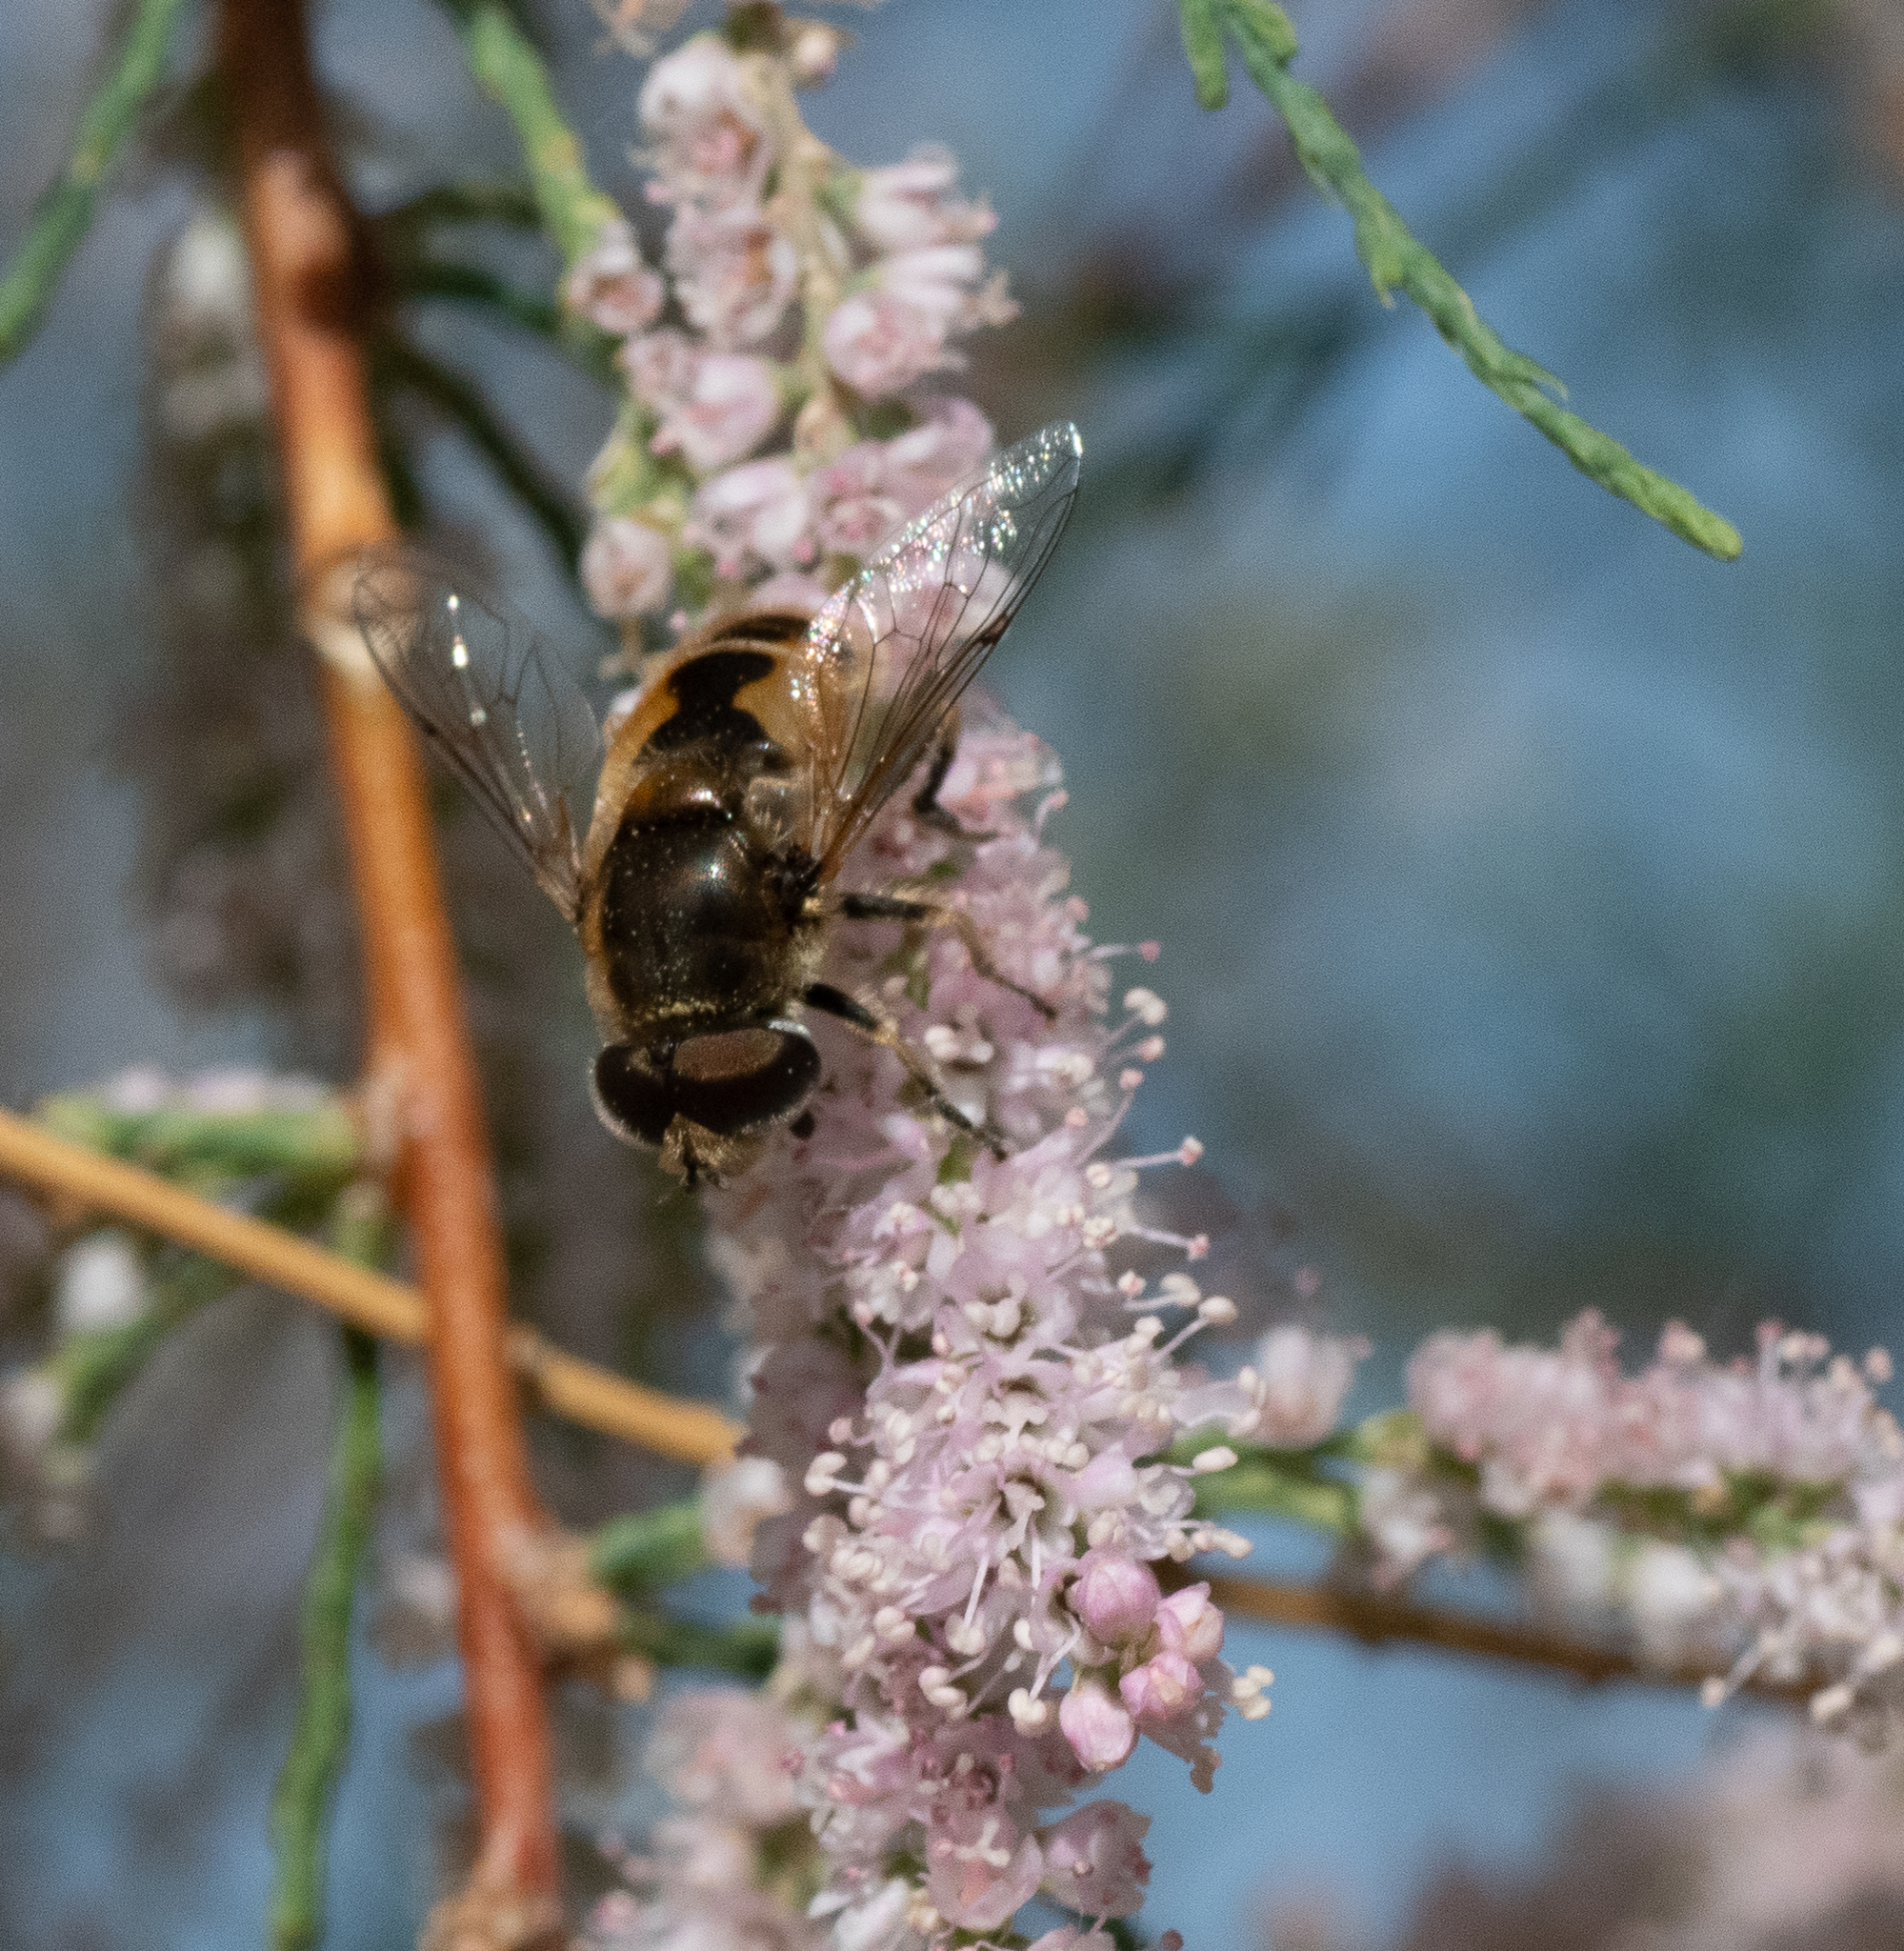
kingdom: Animalia
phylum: Arthropoda
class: Insecta
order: Diptera
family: Syrphidae
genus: Eristalis
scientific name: Eristalis arbustorum
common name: Hover fly
